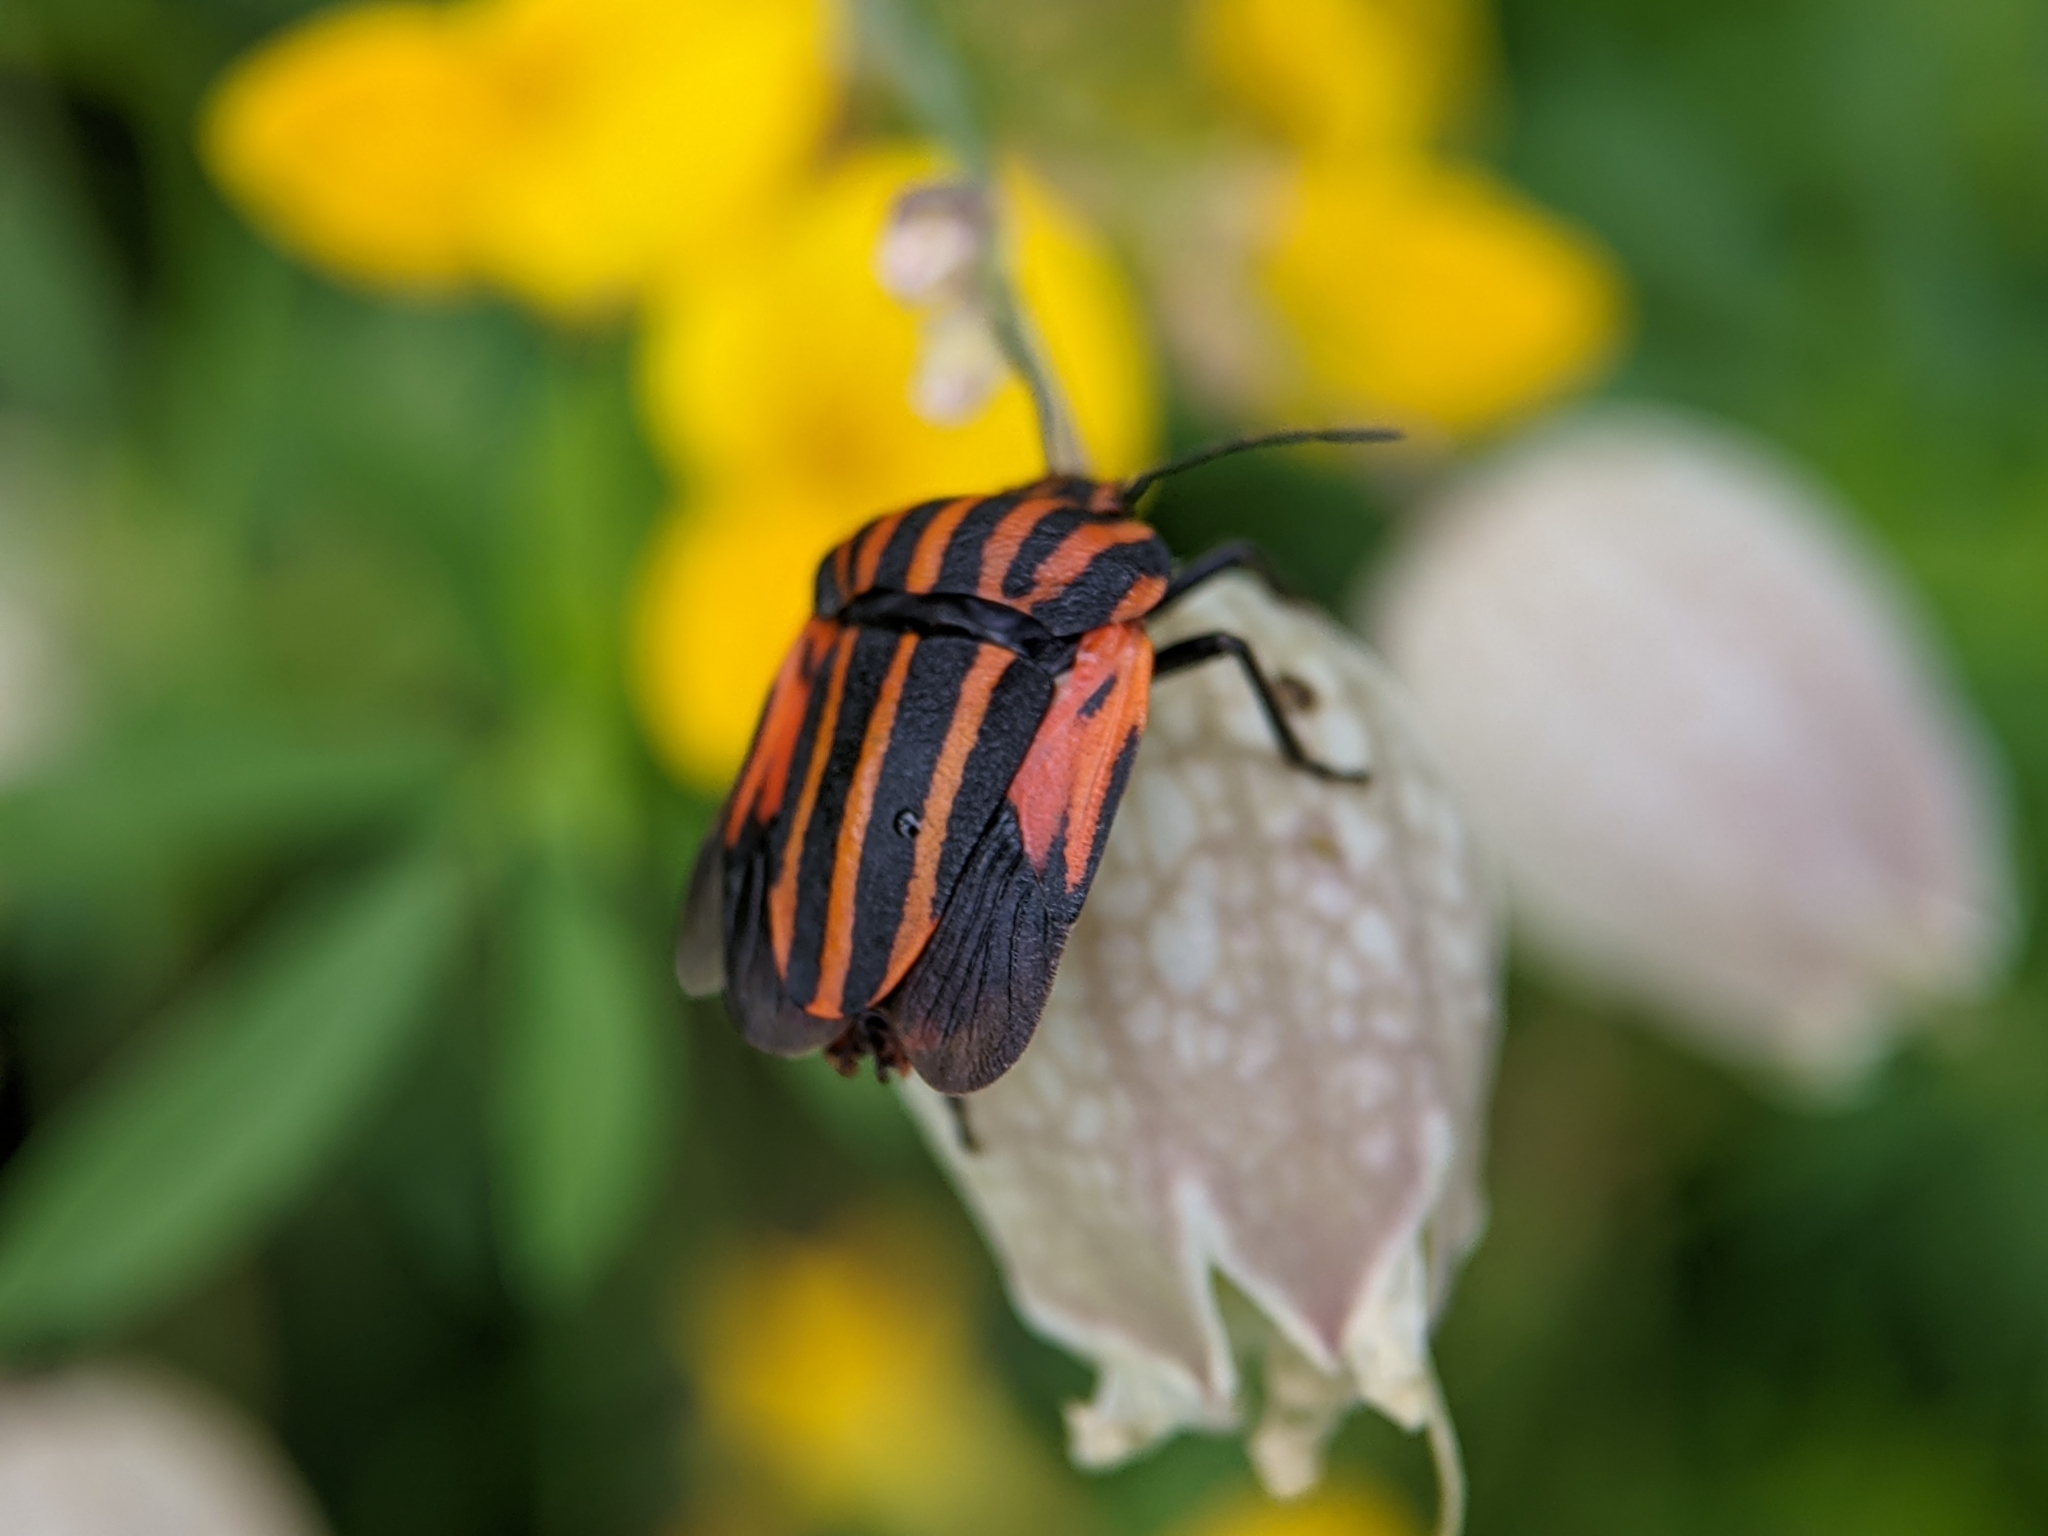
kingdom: Animalia
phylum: Arthropoda
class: Insecta
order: Hemiptera
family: Pentatomidae
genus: Graphosoma
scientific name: Graphosoma italicum
